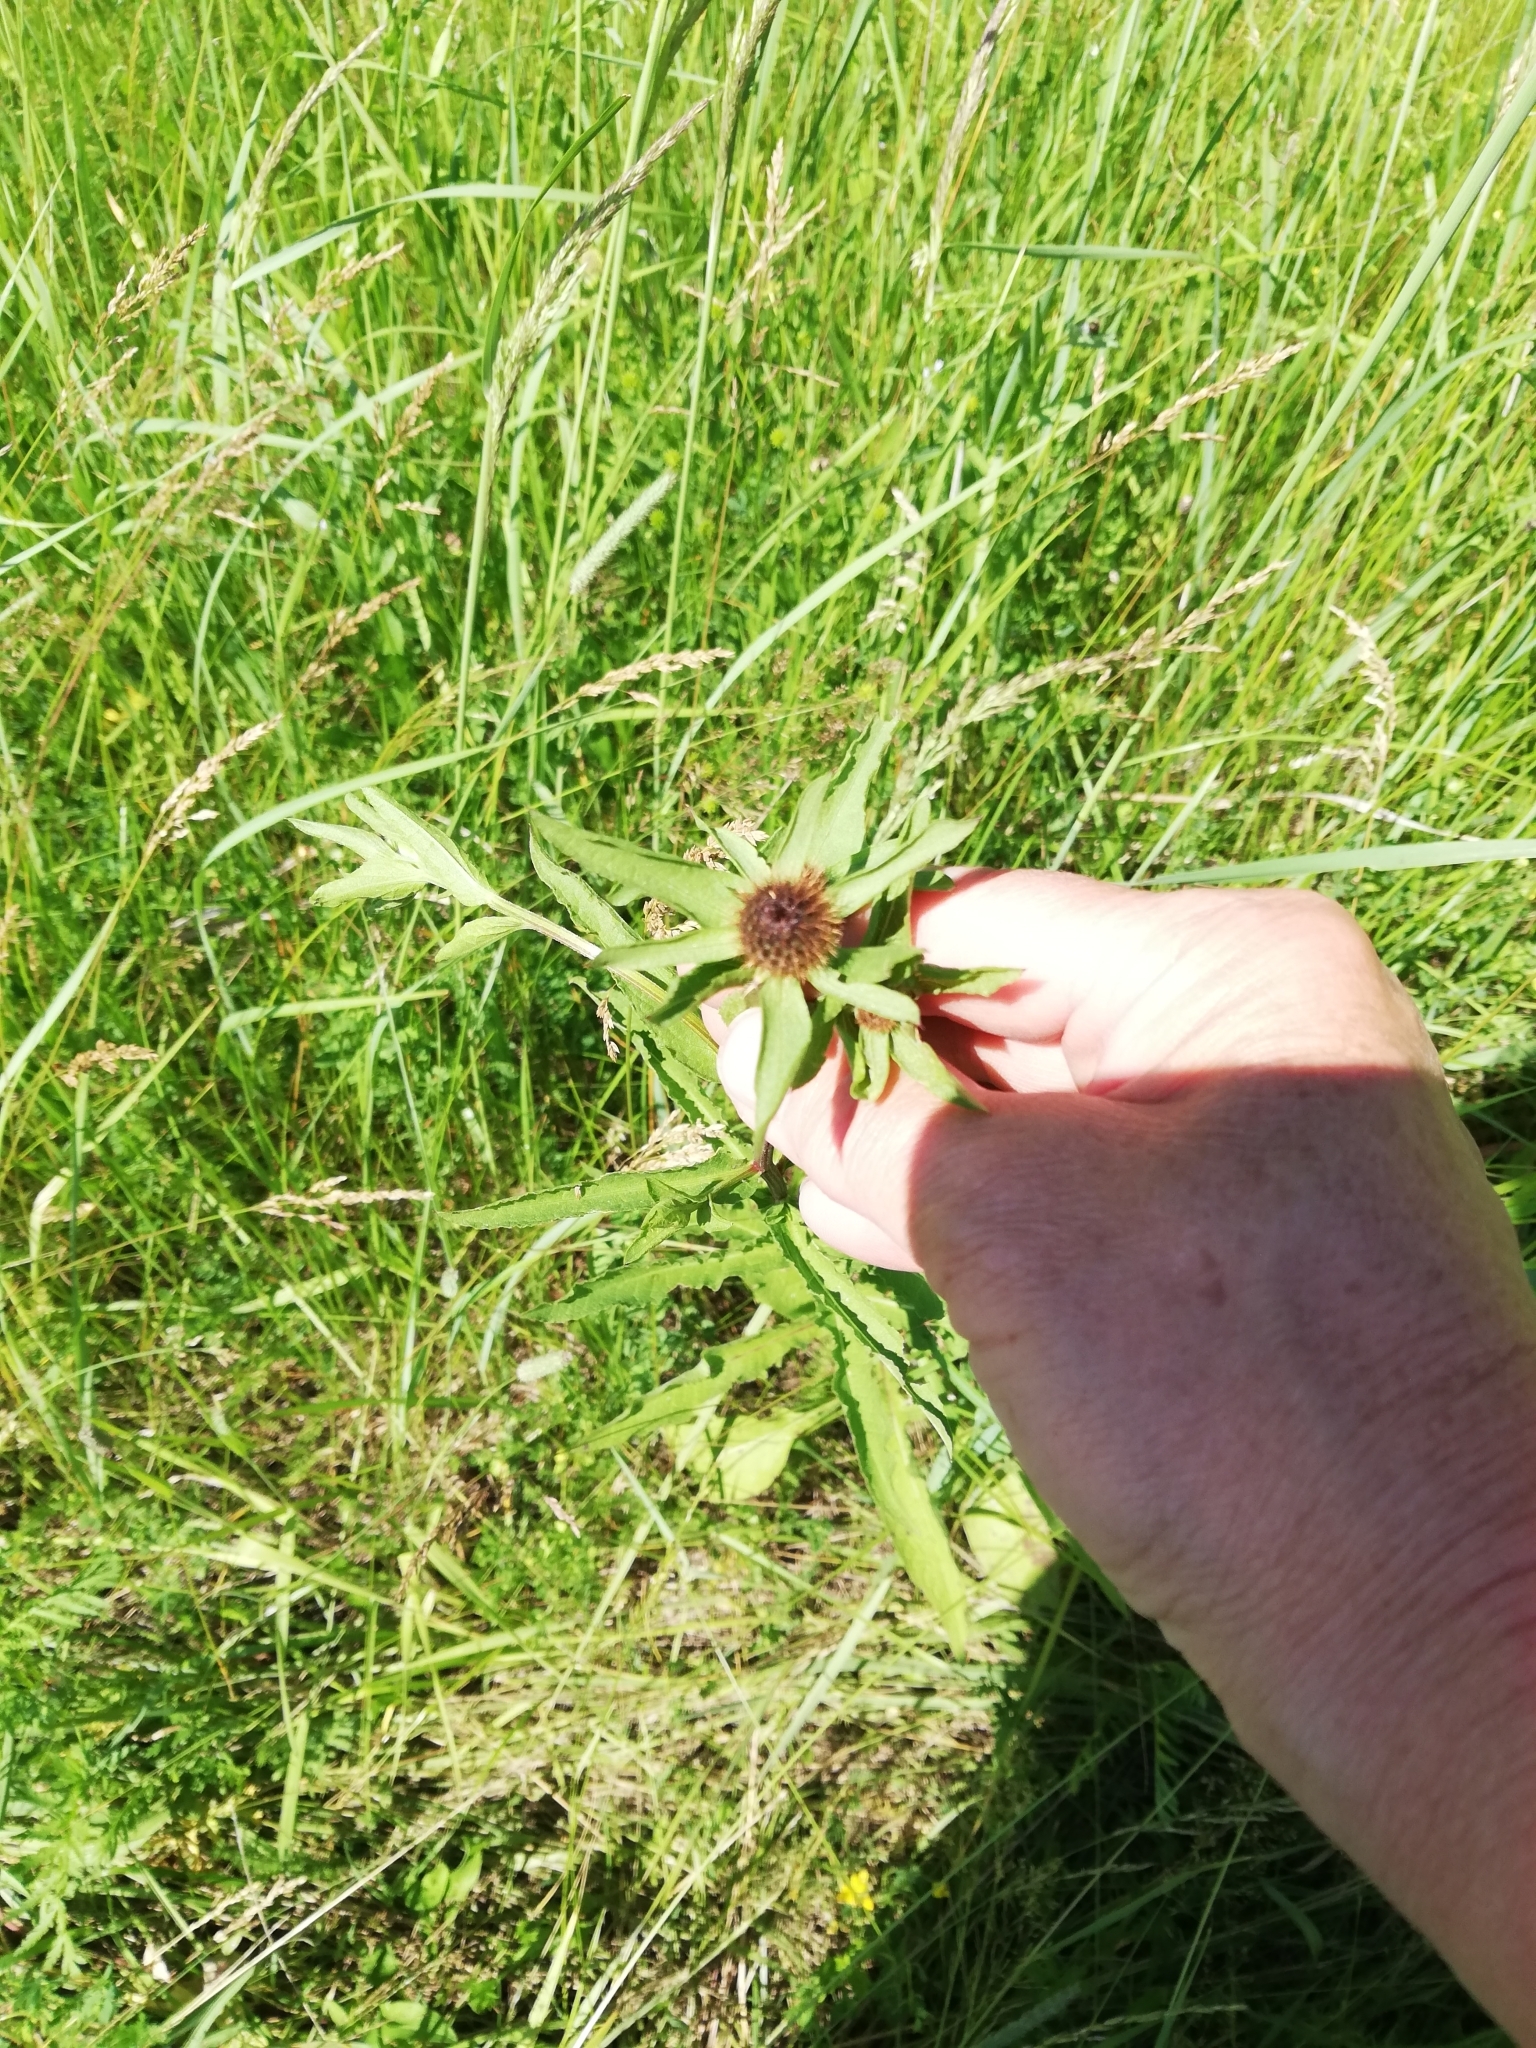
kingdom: Plantae
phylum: Tracheophyta
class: Magnoliopsida
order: Asterales
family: Asteraceae
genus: Centaurea
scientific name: Centaurea phrygia
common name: Wig knapweed
